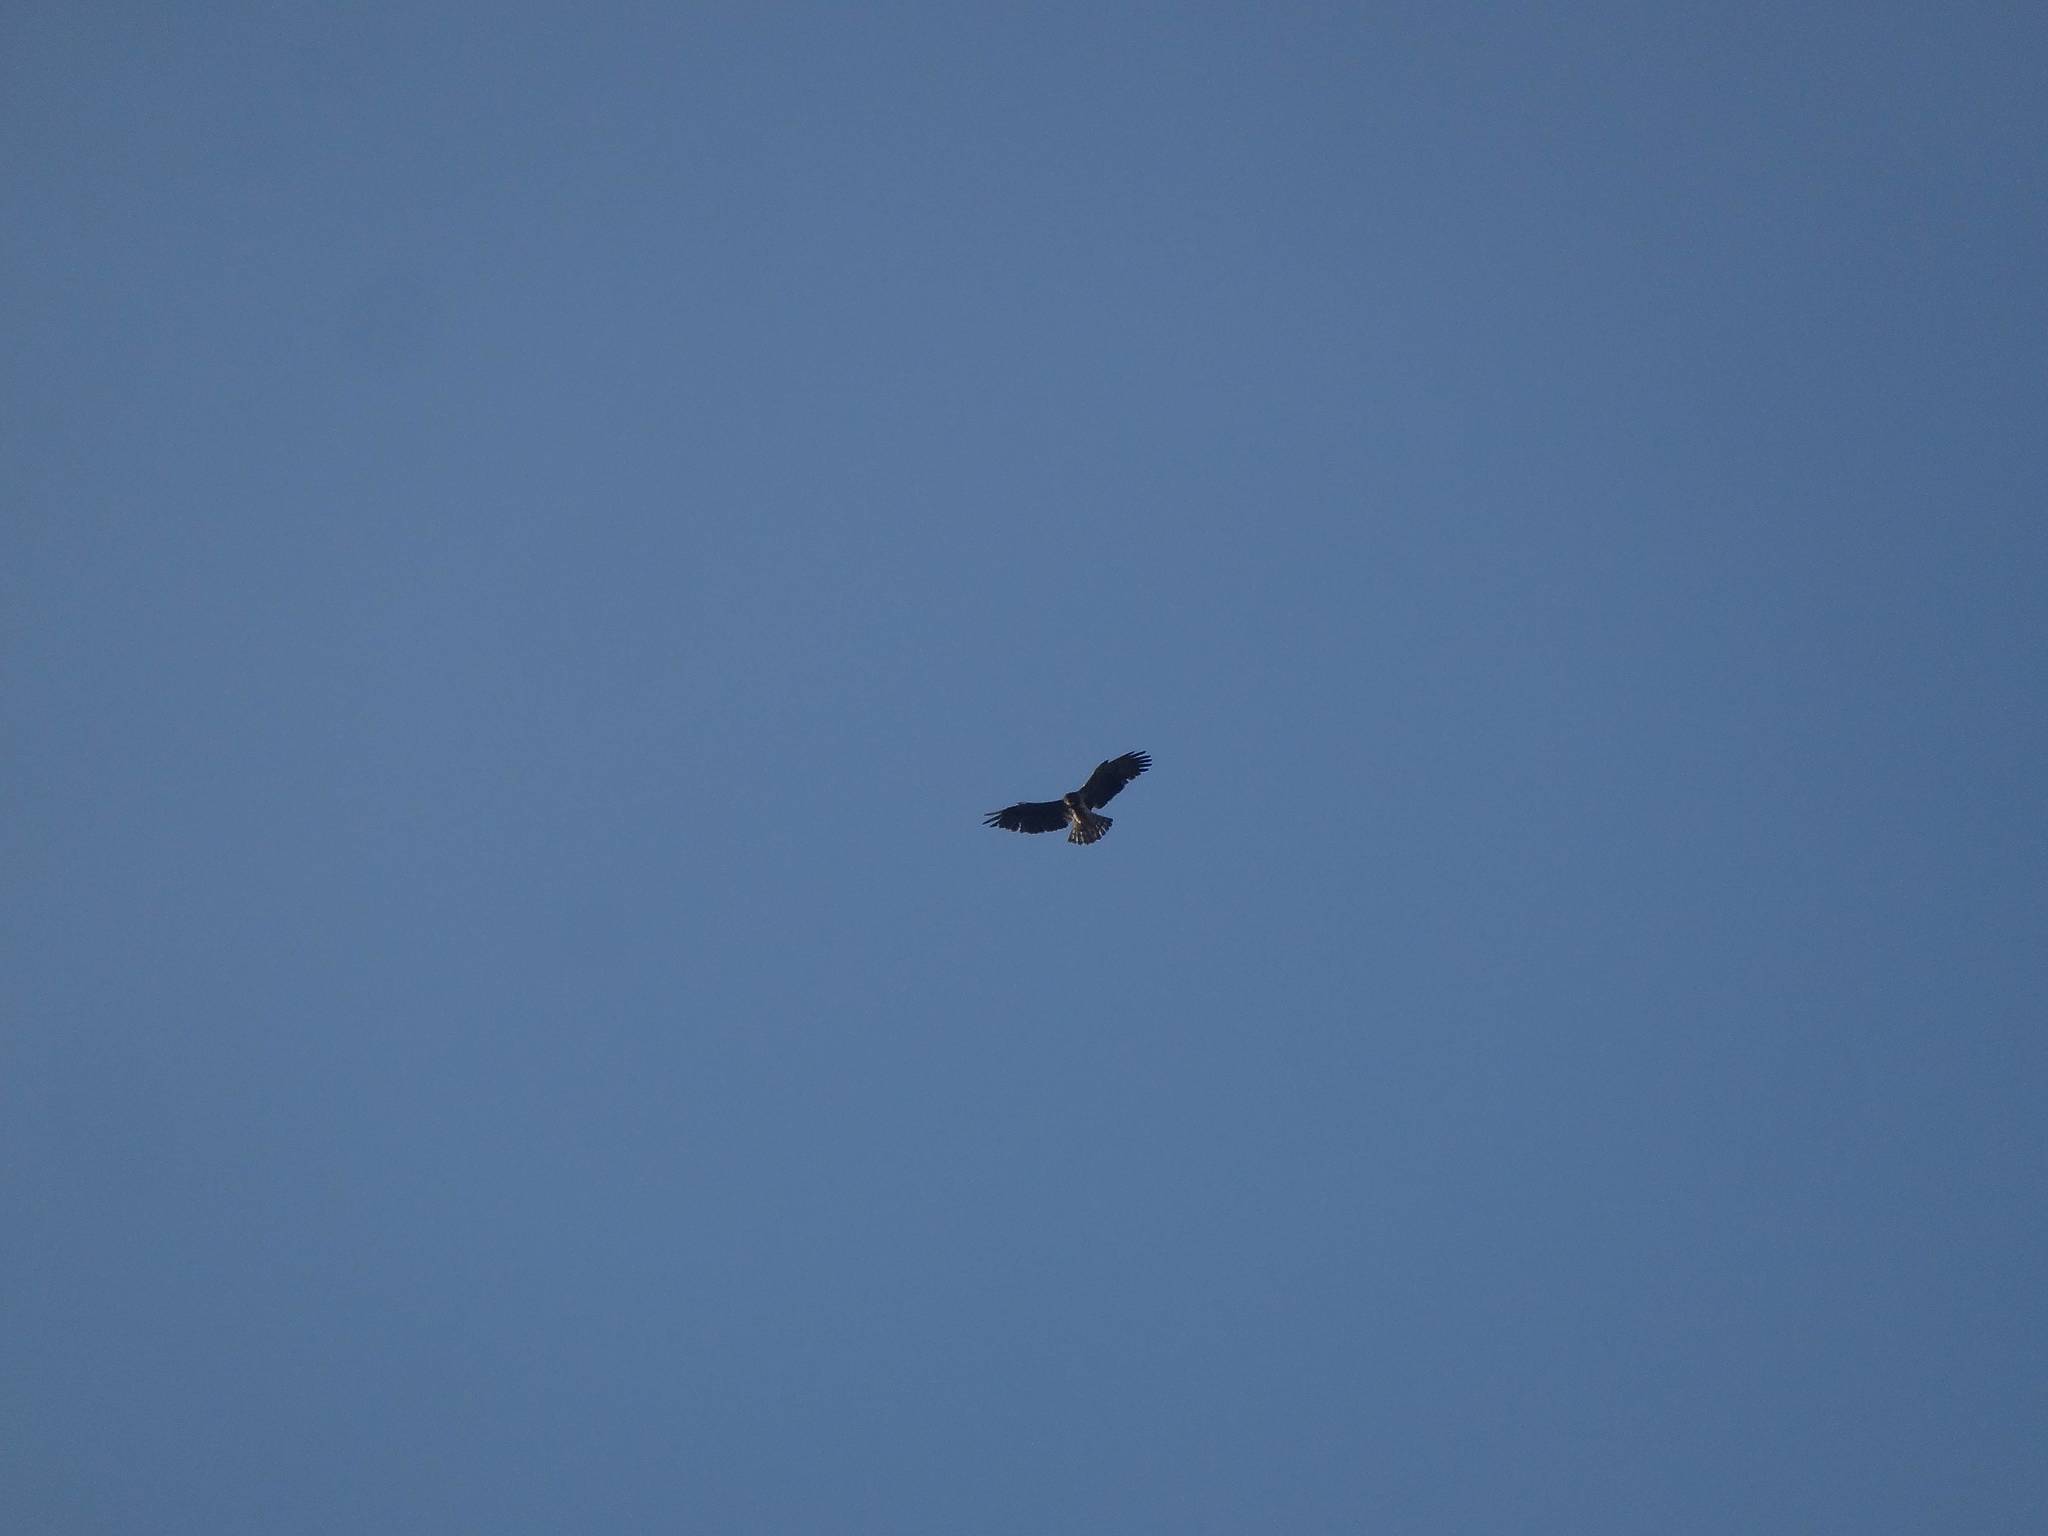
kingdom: Animalia
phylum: Chordata
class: Aves
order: Accipitriformes
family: Accipitridae
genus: Circaetus
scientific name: Circaetus gallicus
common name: Short-toed snake eagle
